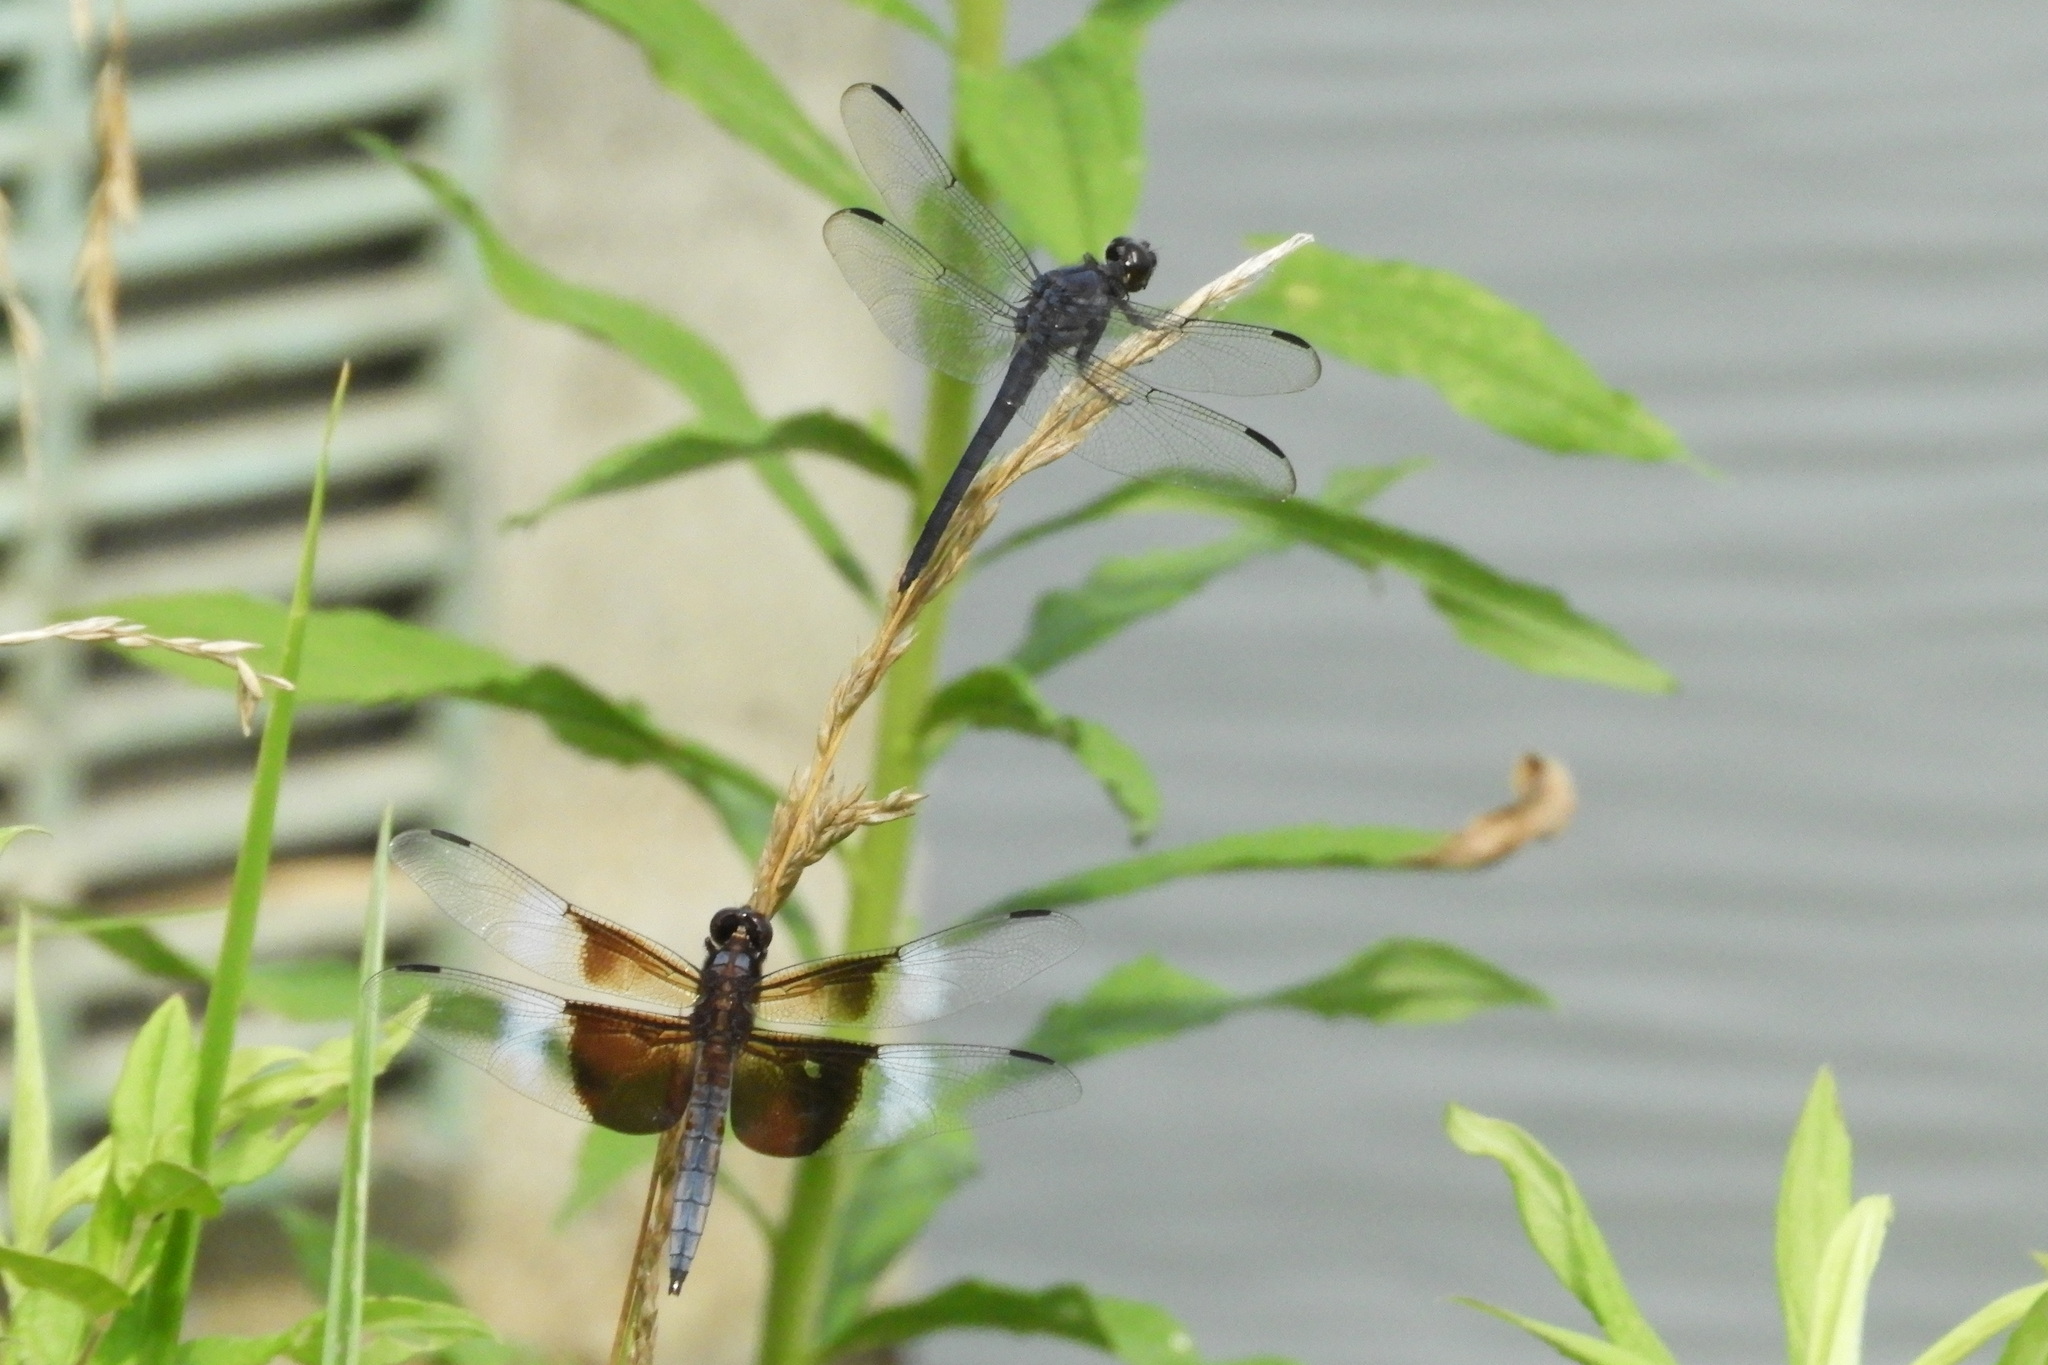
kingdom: Animalia
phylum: Arthropoda
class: Insecta
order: Odonata
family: Libellulidae
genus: Libellula
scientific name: Libellula incesta
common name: Slaty skimmer
